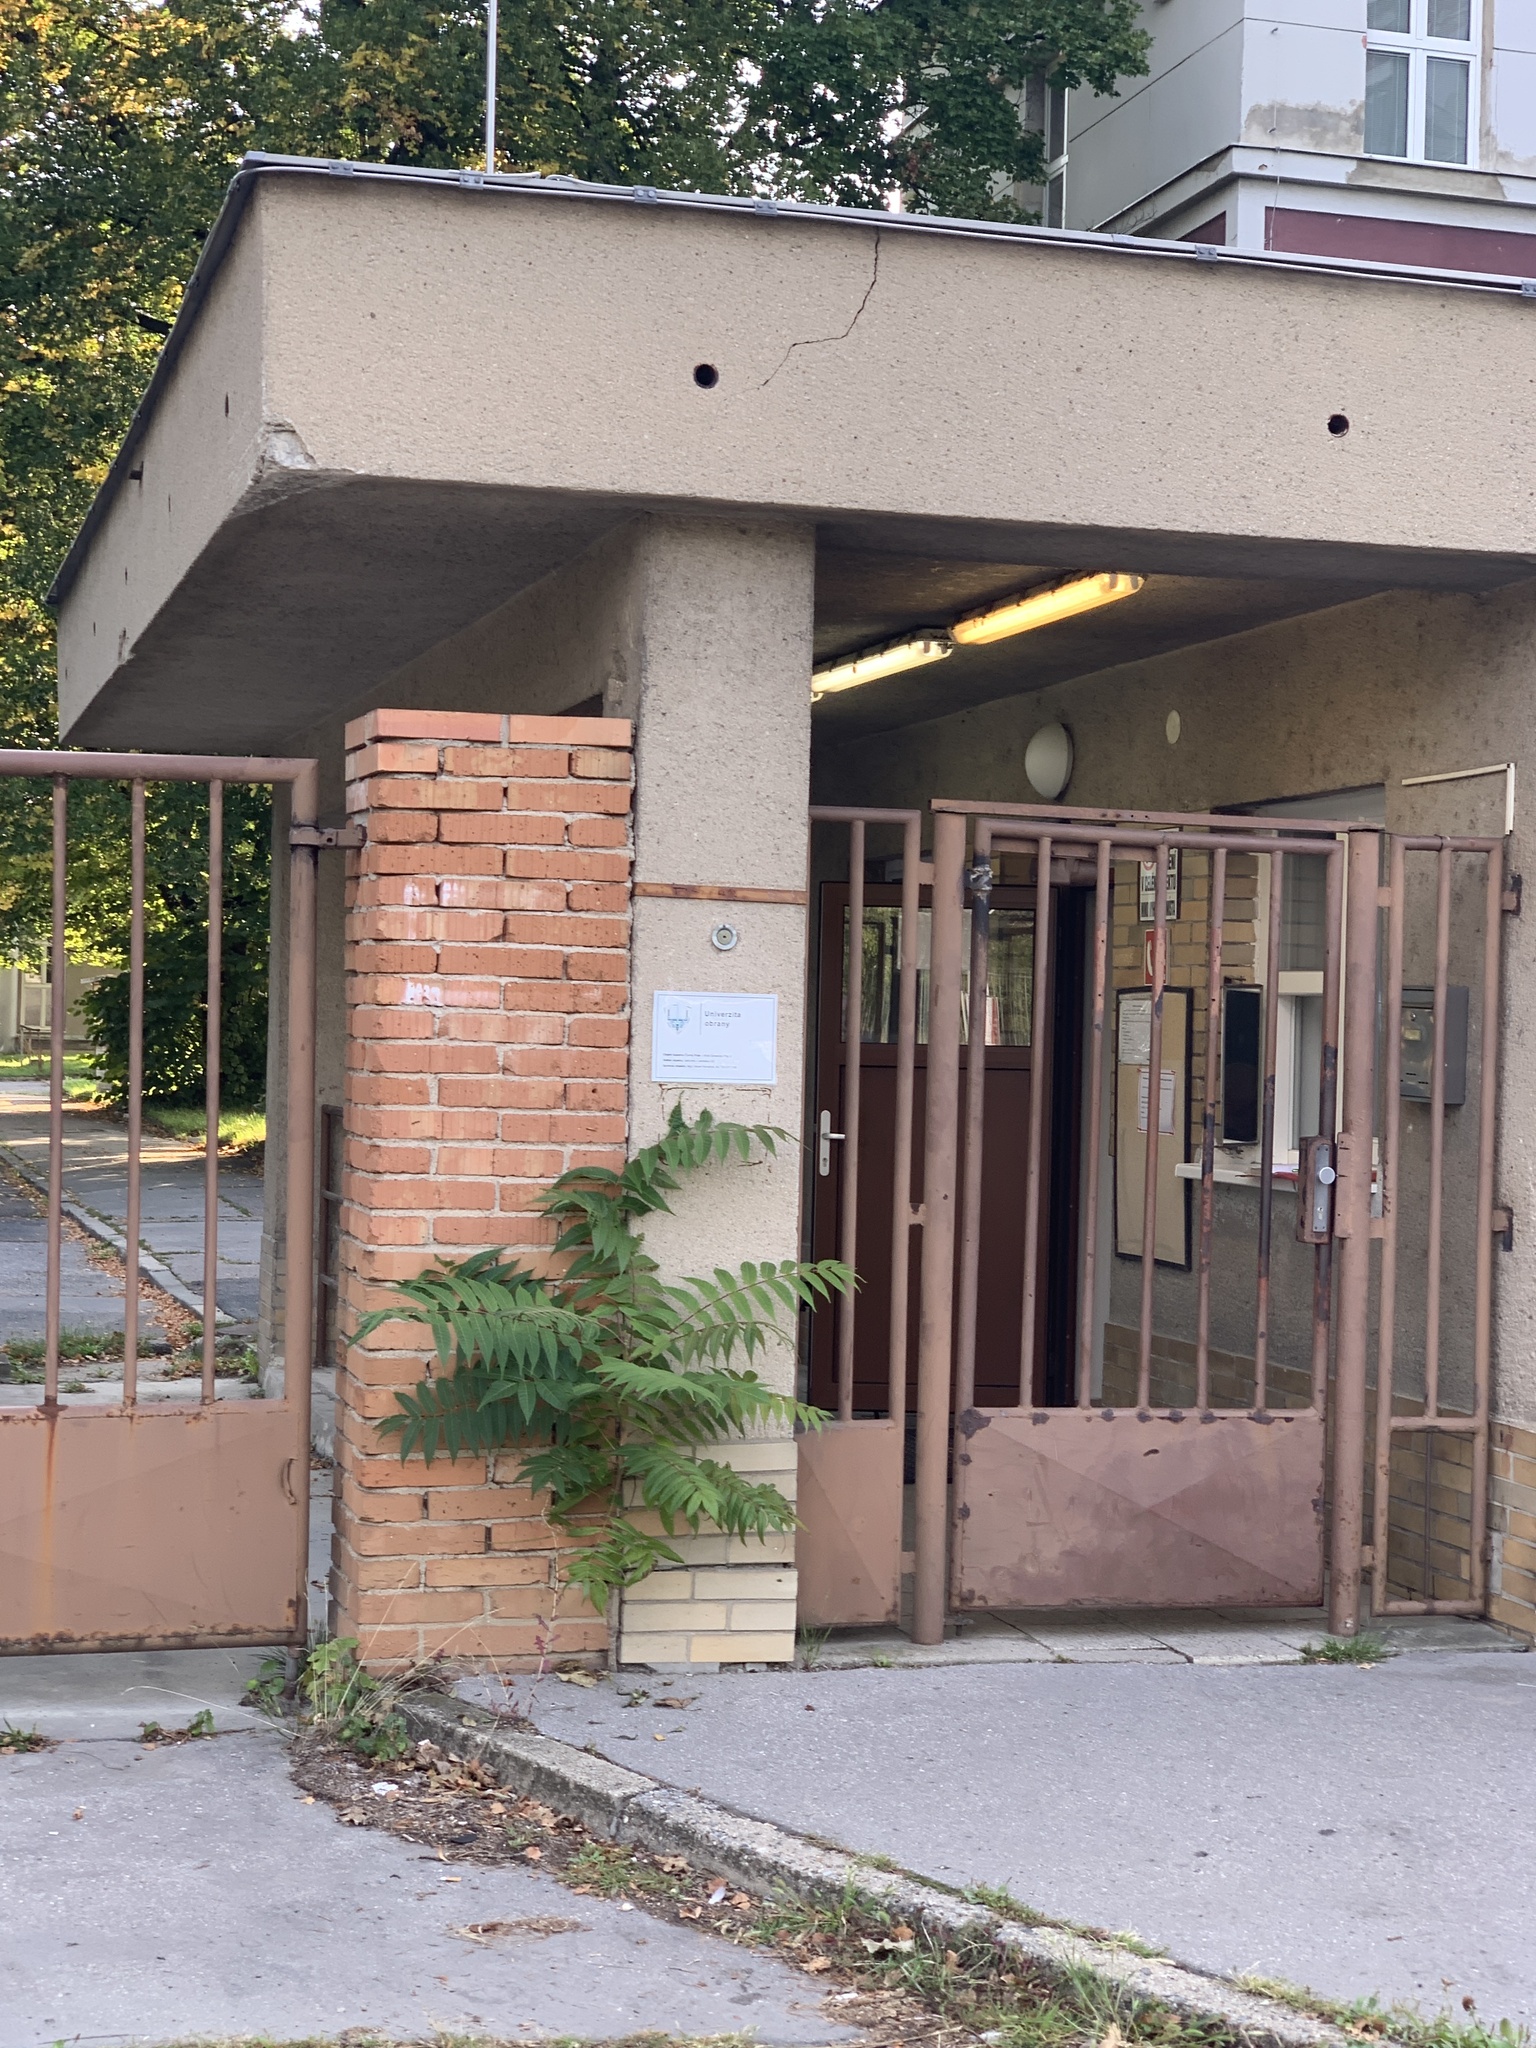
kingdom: Plantae
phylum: Tracheophyta
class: Magnoliopsida
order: Sapindales
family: Simaroubaceae
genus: Ailanthus
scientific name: Ailanthus altissima
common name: Tree-of-heaven
